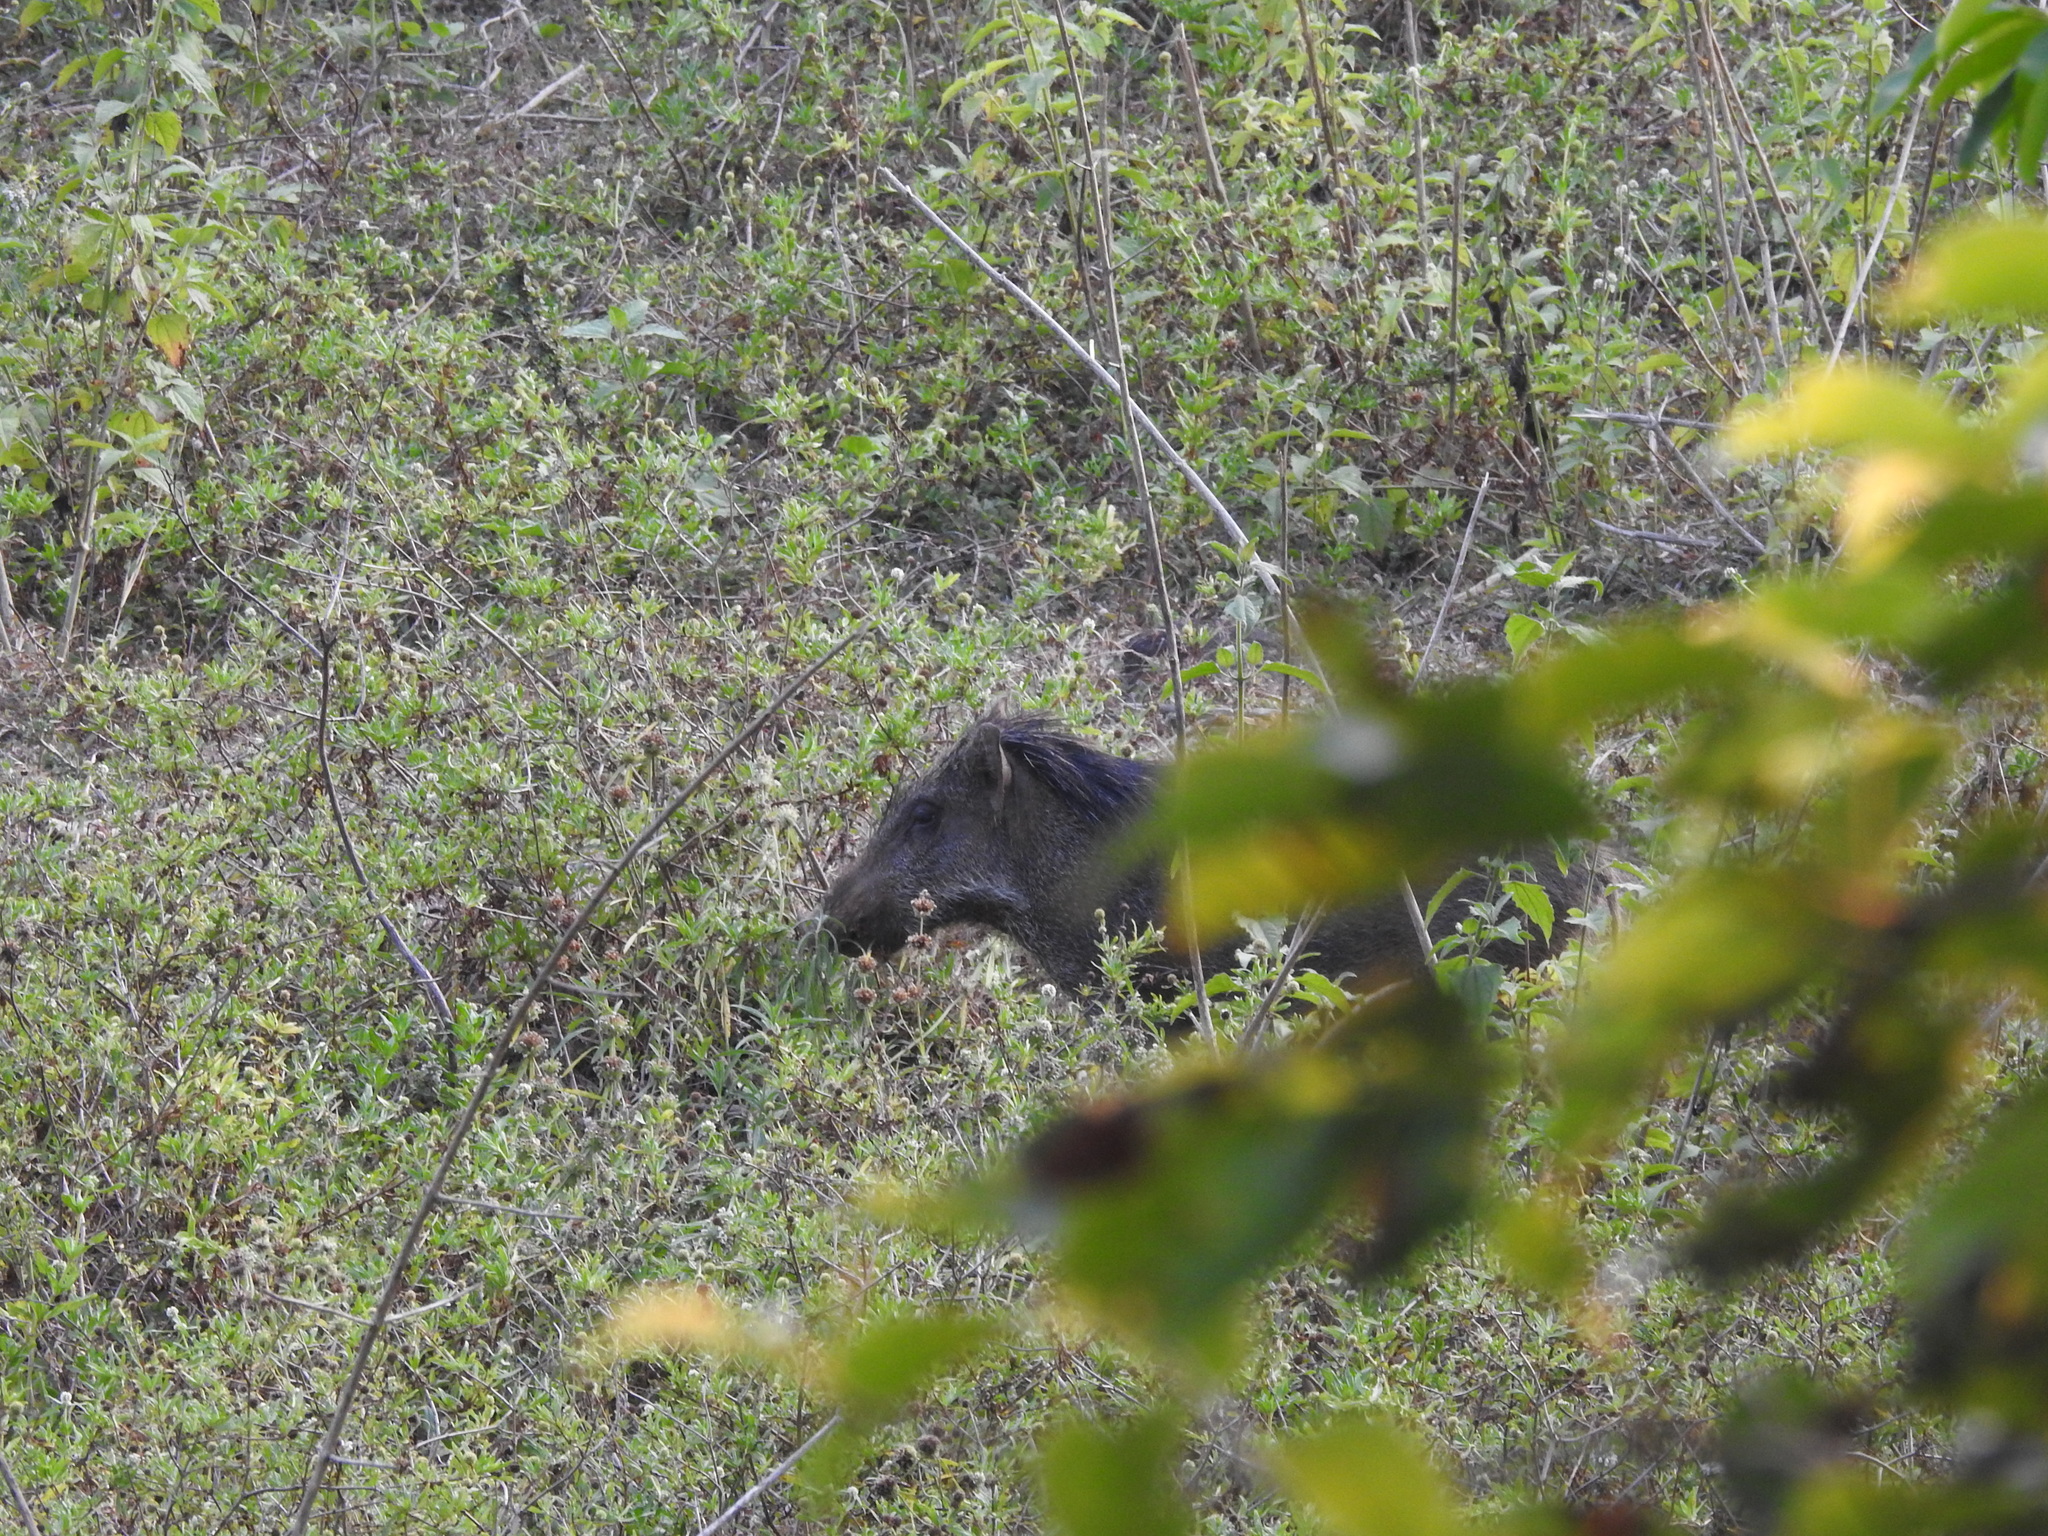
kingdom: Animalia
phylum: Chordata
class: Mammalia
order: Artiodactyla
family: Suidae
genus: Sus
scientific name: Sus scrofa
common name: Wild boar
